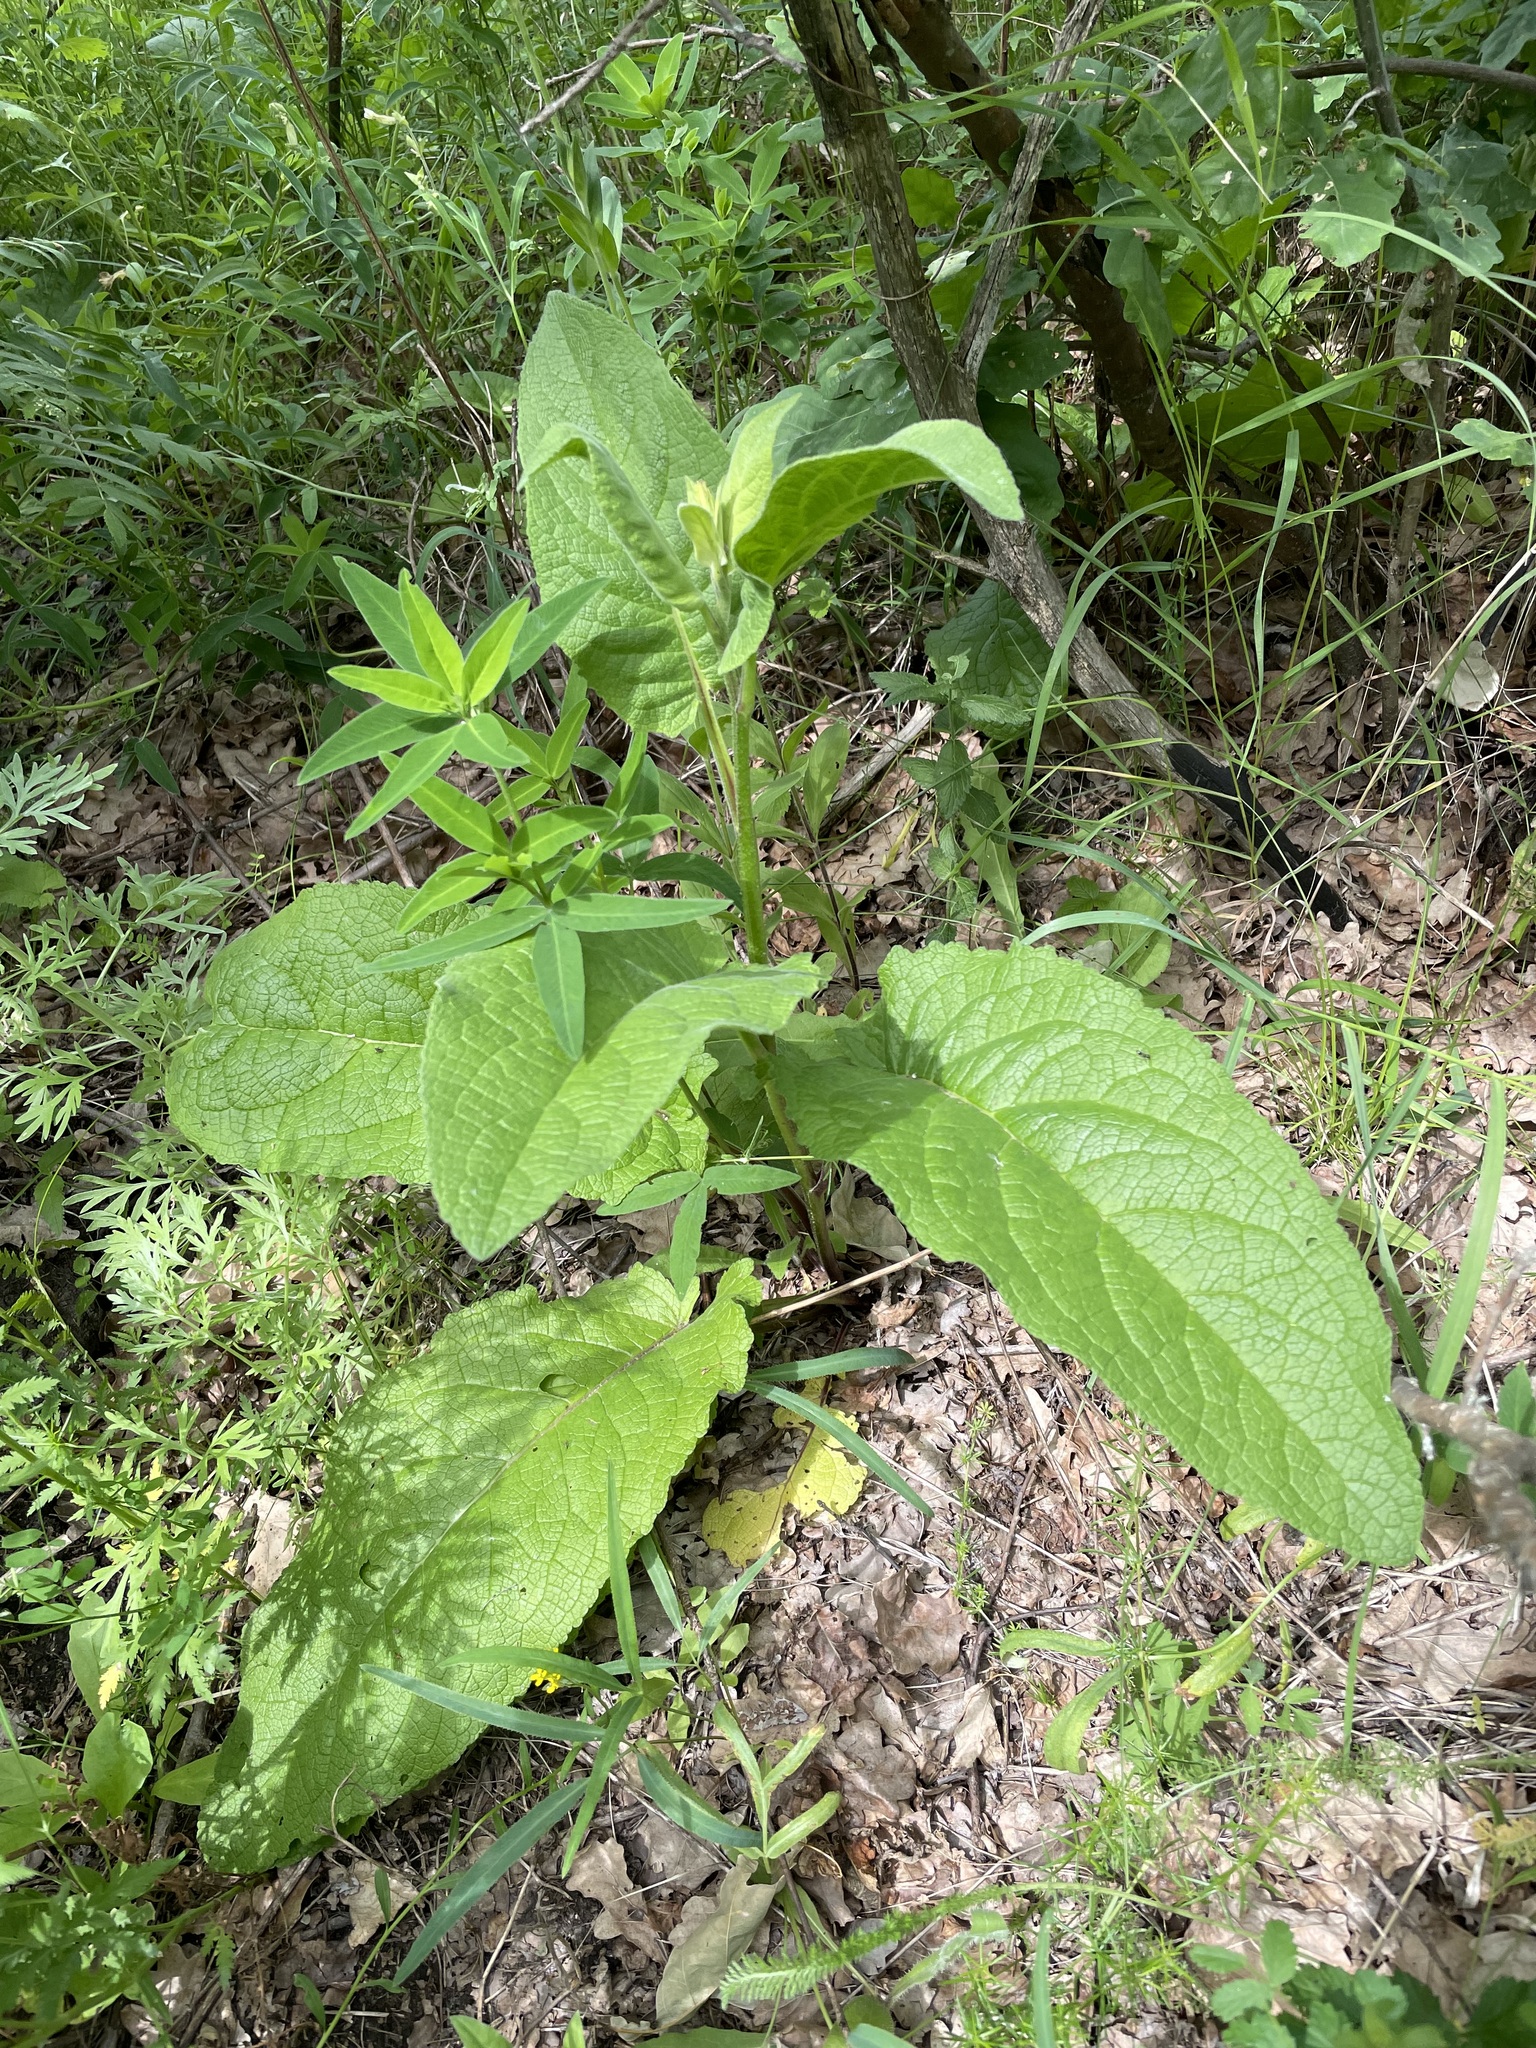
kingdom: Plantae
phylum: Tracheophyta
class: Magnoliopsida
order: Lamiales
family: Scrophulariaceae
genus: Verbascum
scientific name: Verbascum nigrum
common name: Dark mullein
